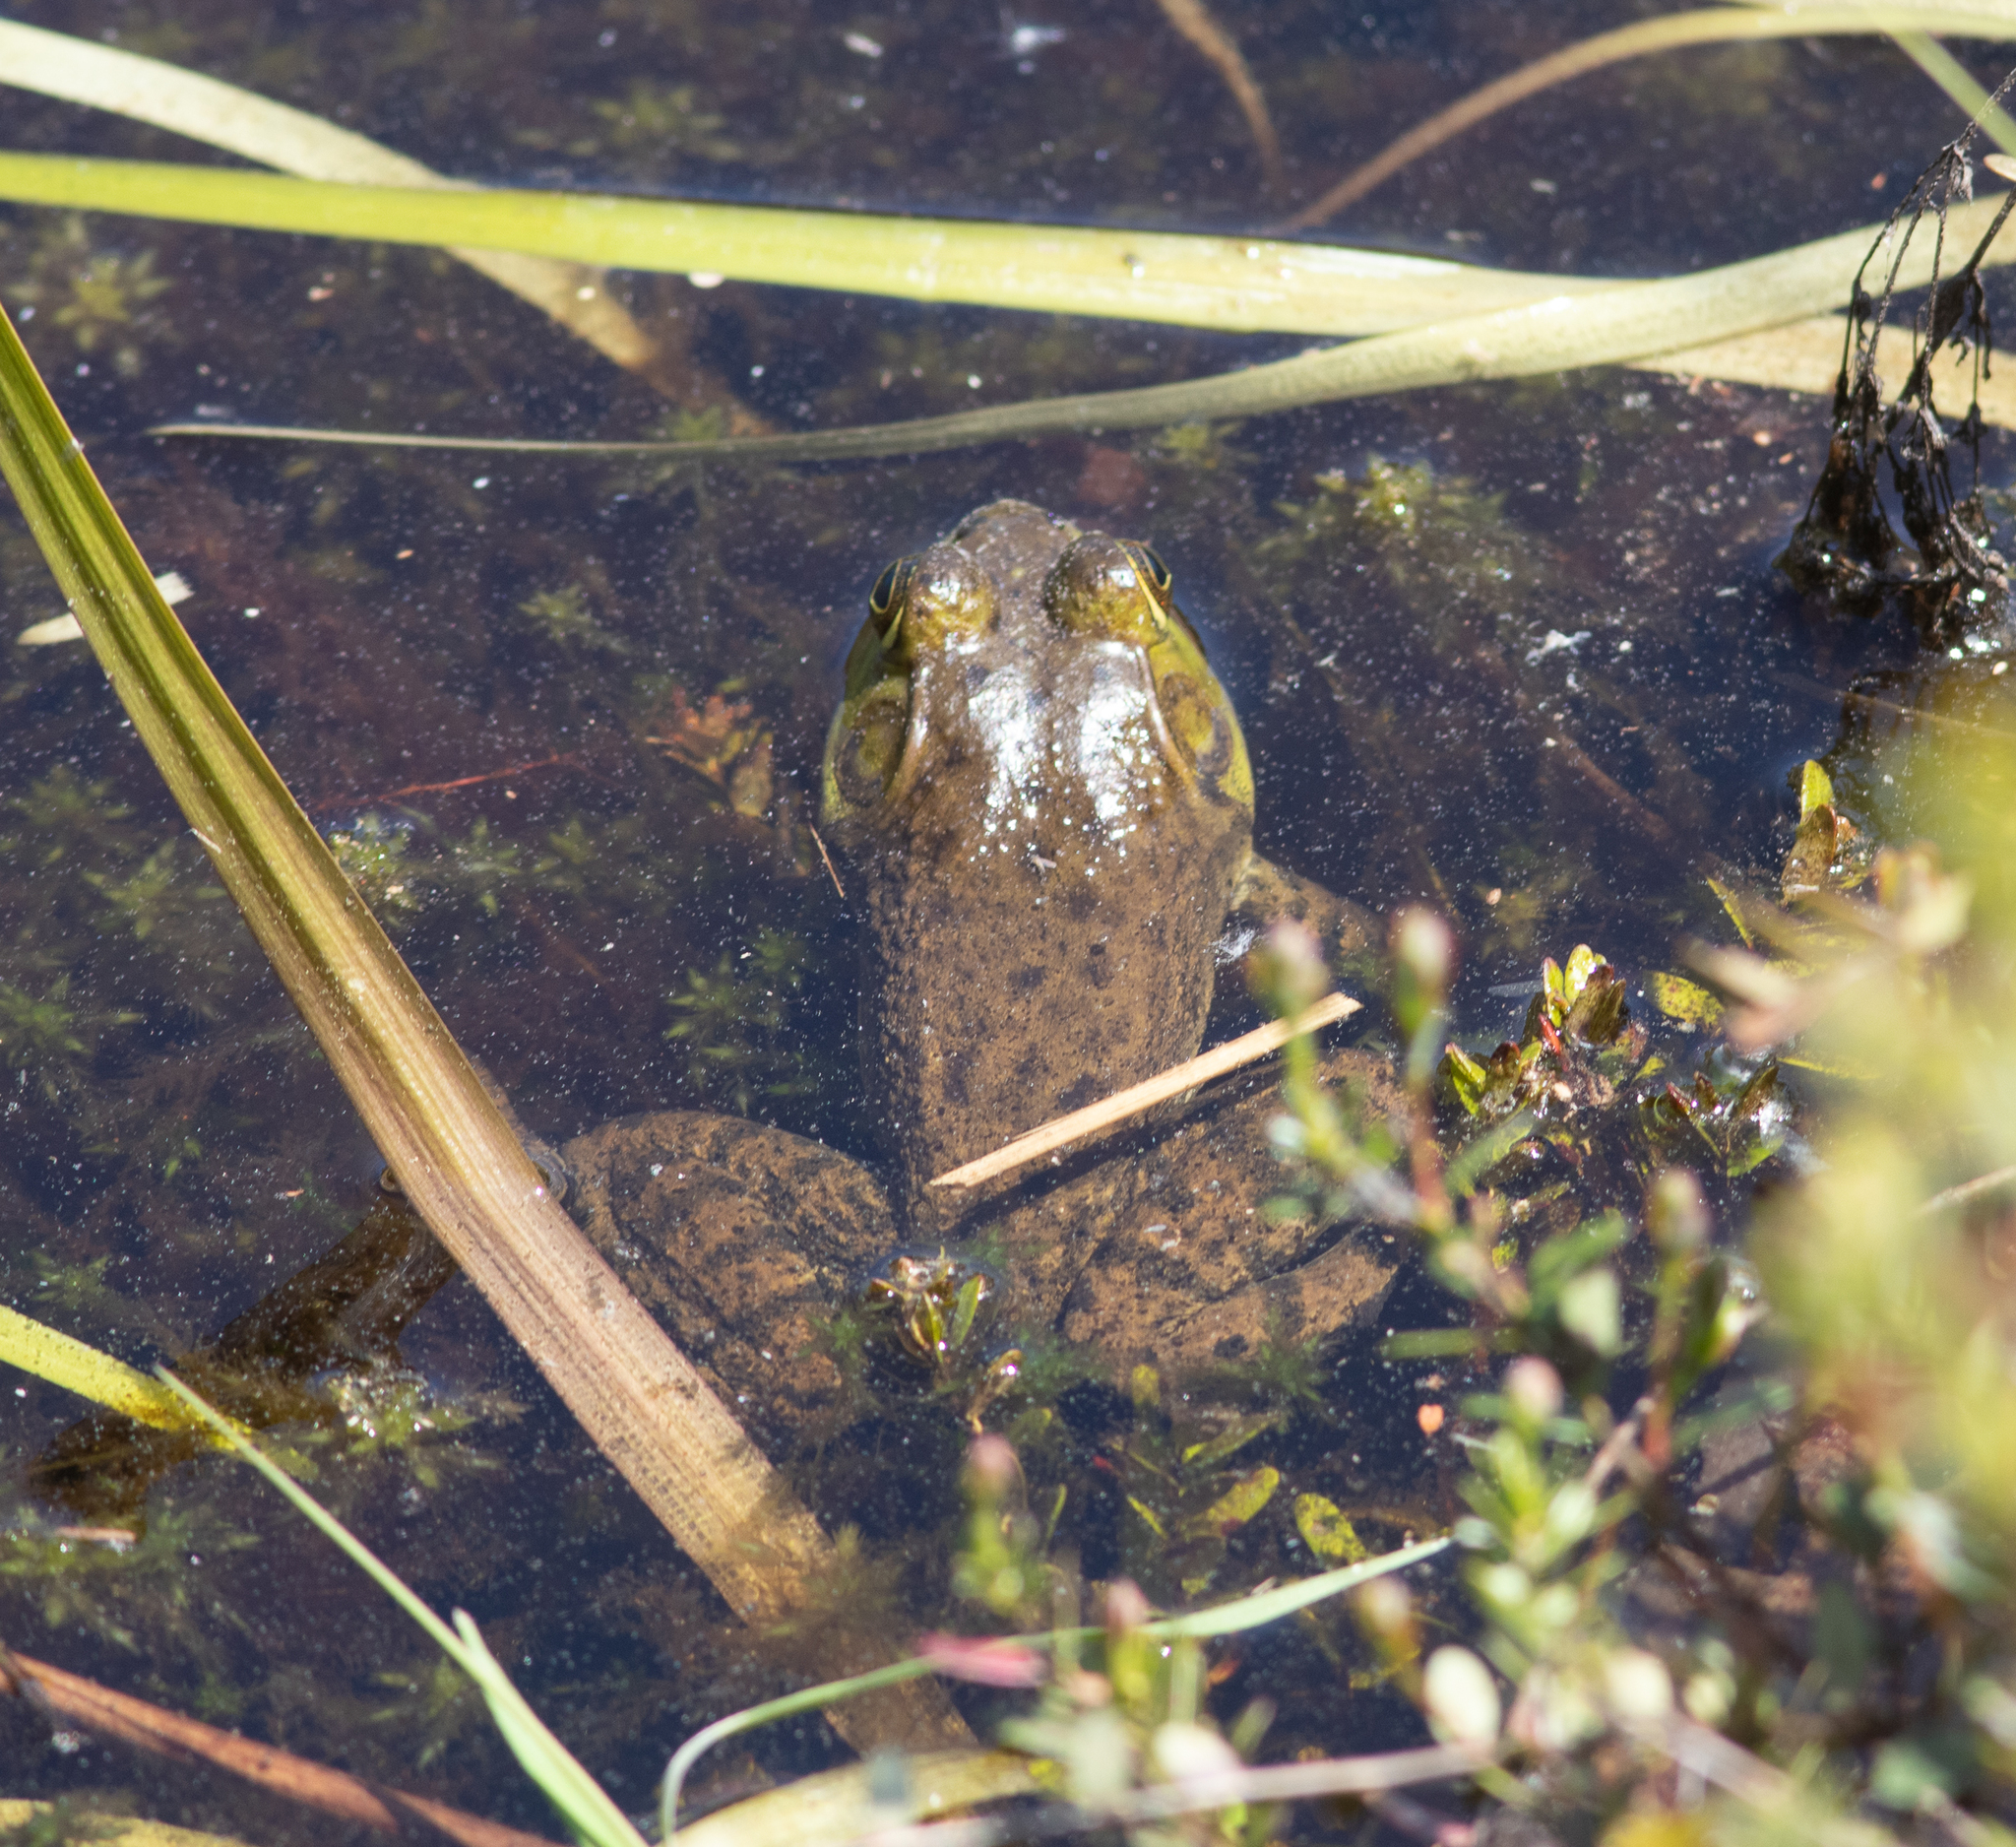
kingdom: Animalia
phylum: Chordata
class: Amphibia
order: Anura
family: Ranidae
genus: Lithobates
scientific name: Lithobates catesbeianus
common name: American bullfrog
